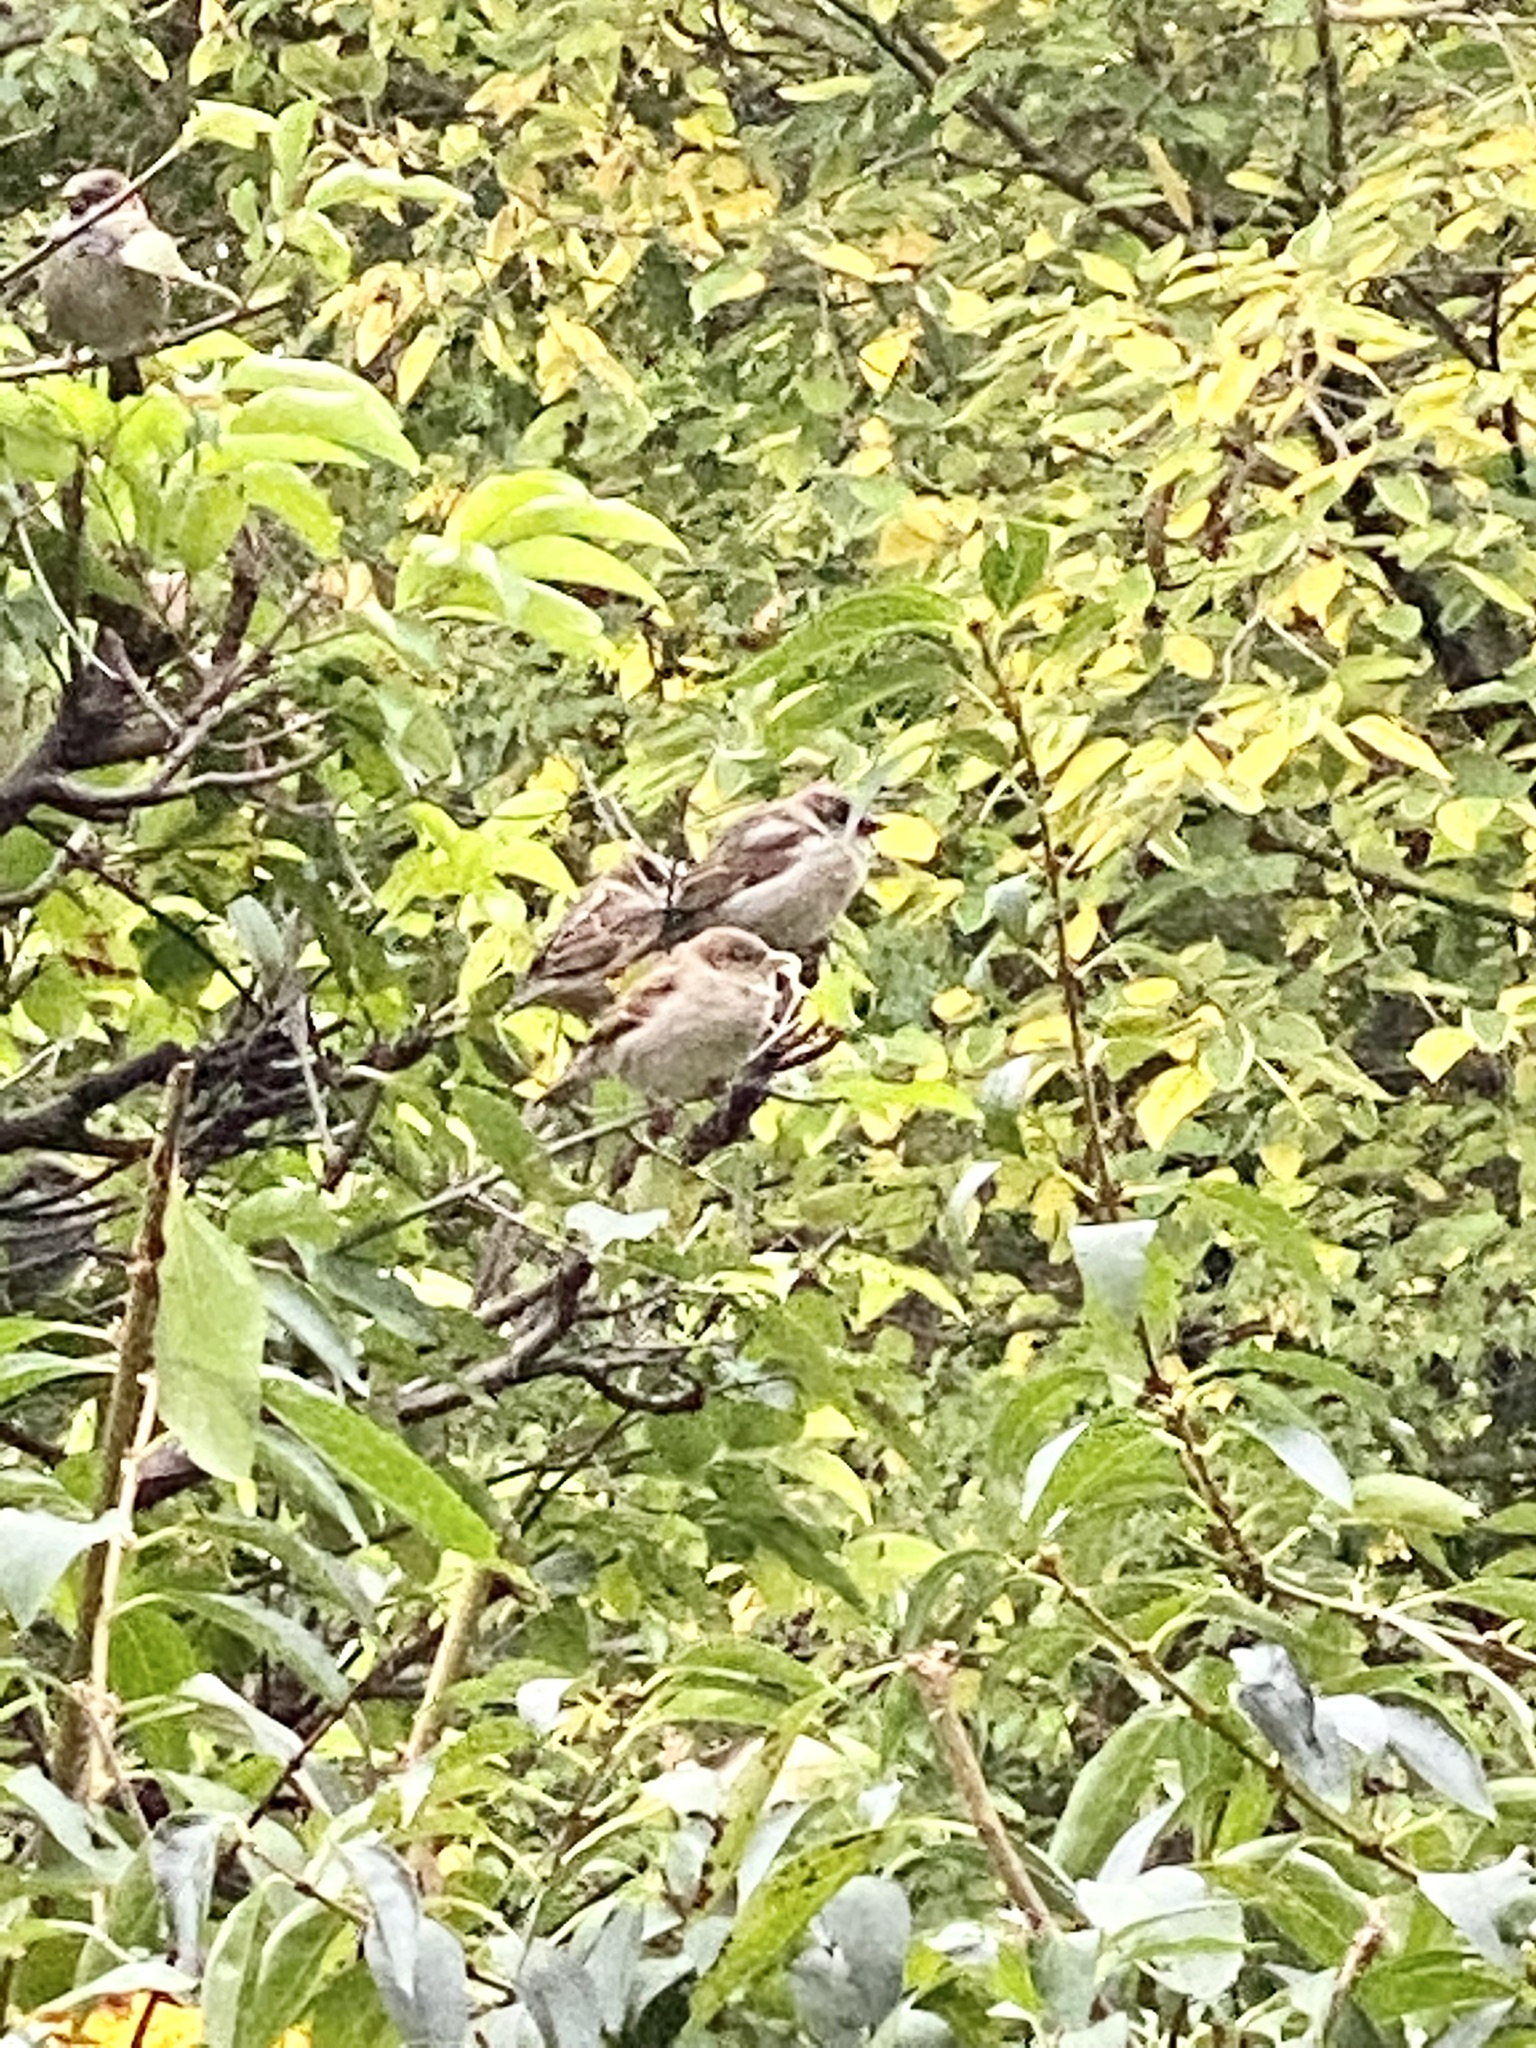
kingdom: Animalia
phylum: Chordata
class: Aves
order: Passeriformes
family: Passeridae
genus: Passer
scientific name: Passer domesticus
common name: House sparrow
